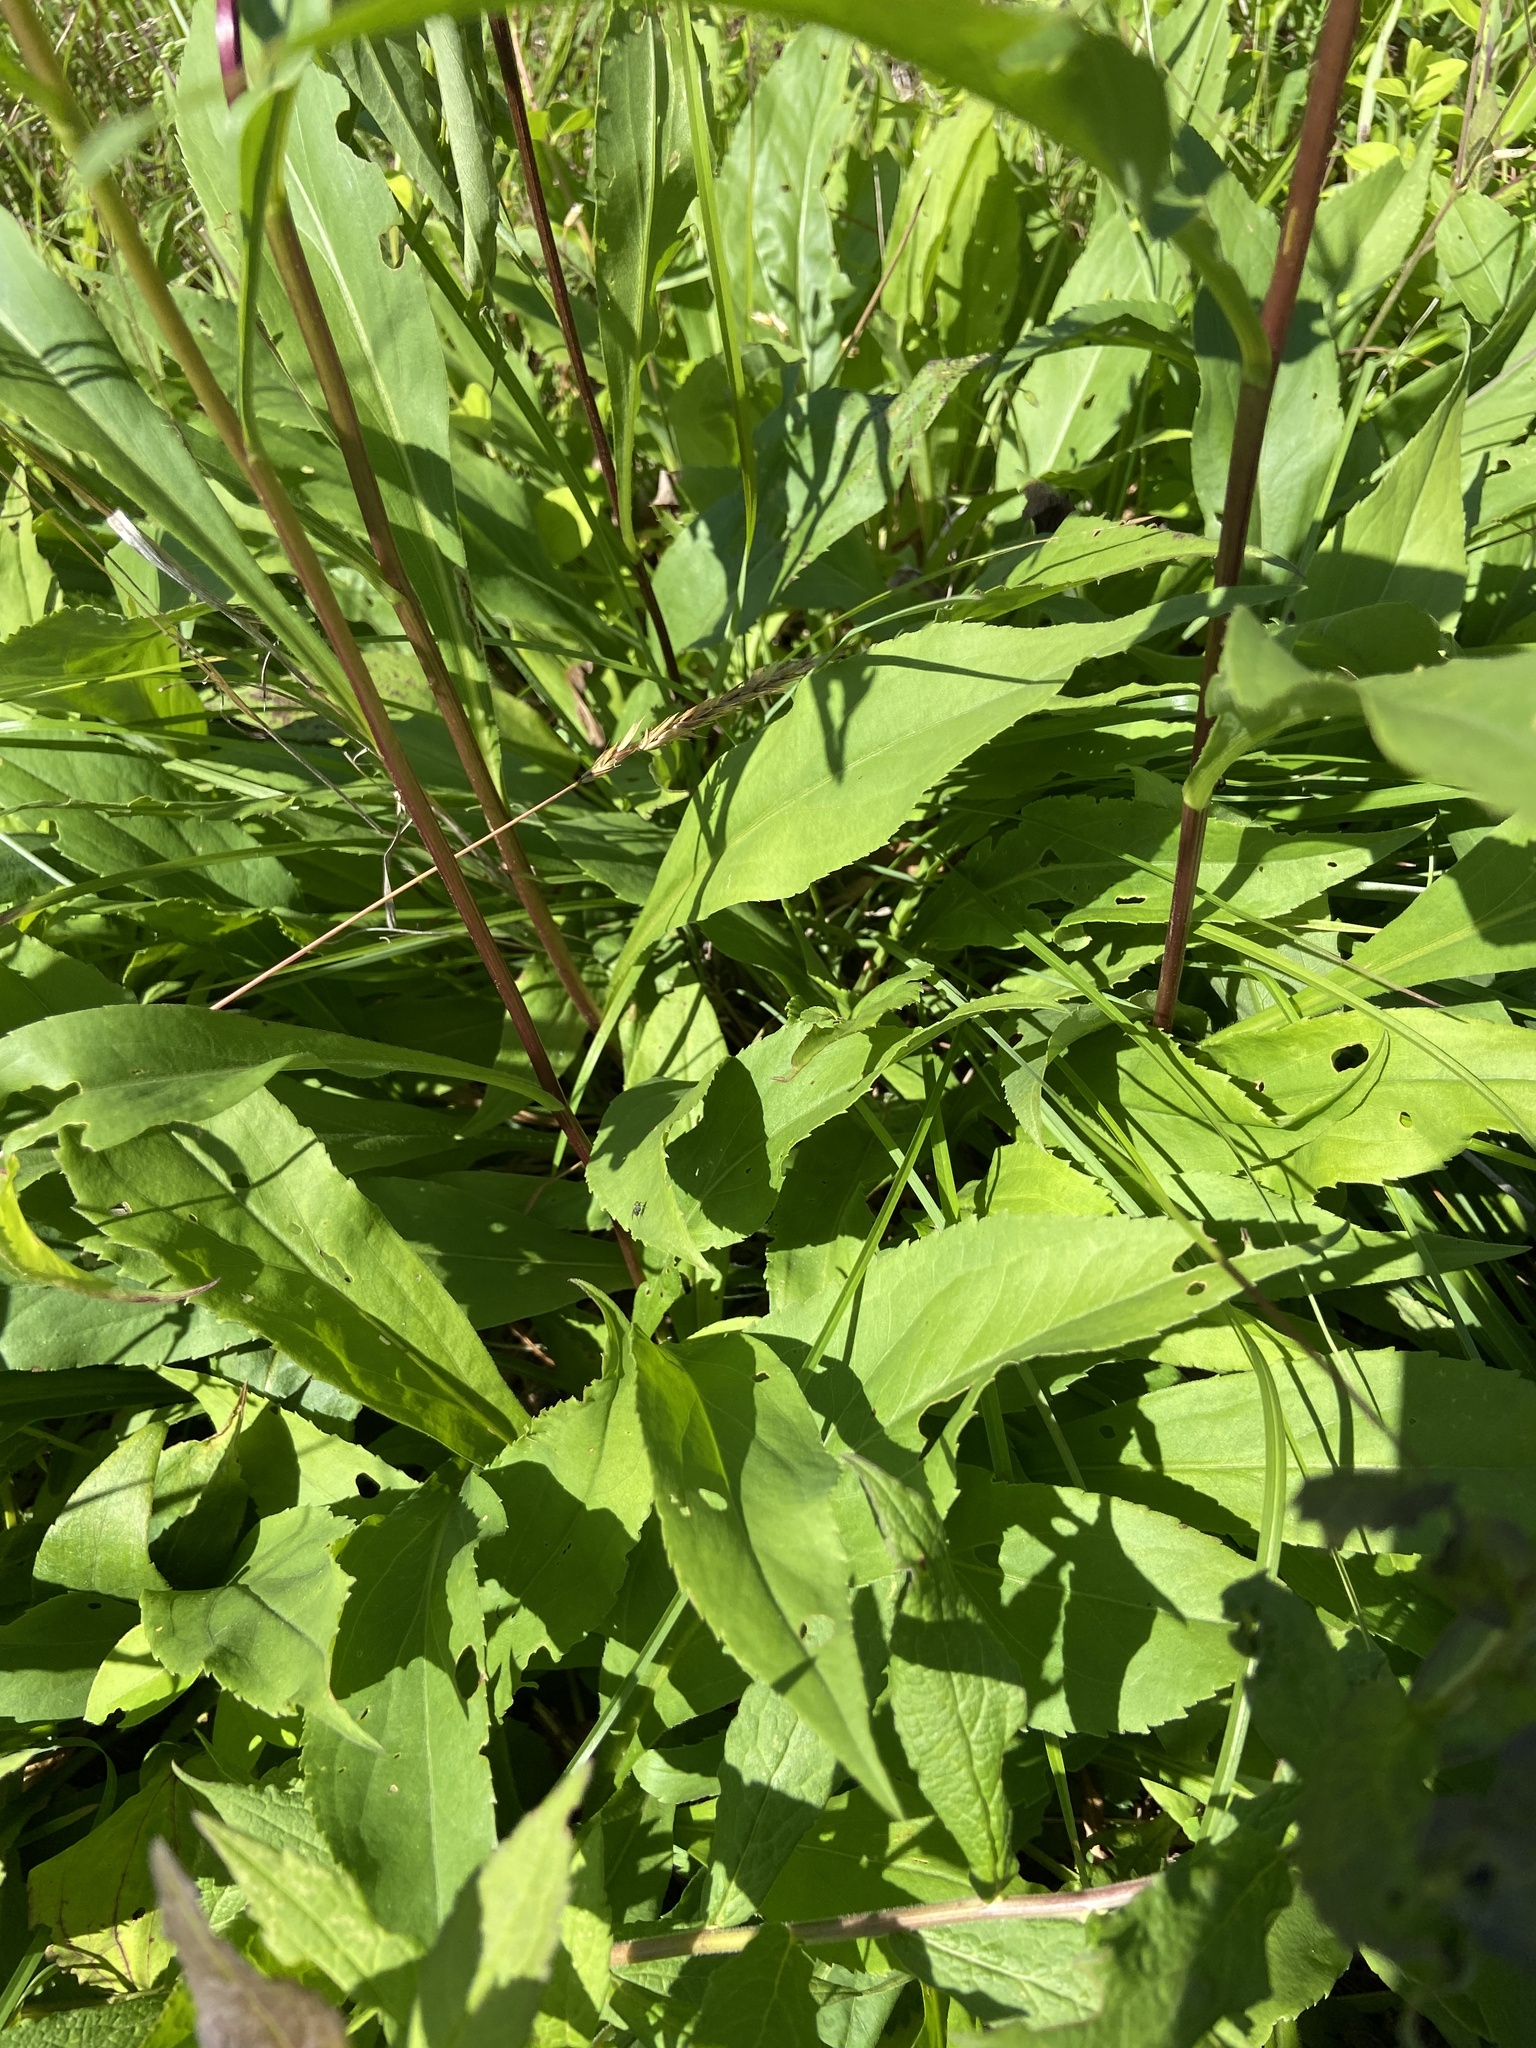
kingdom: Plantae
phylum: Tracheophyta
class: Magnoliopsida
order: Asterales
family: Asteraceae
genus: Solidago
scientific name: Solidago juncea
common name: Early goldenrod
